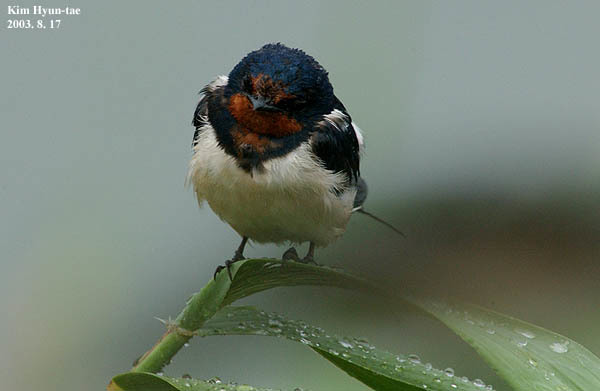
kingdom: Animalia
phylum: Chordata
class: Aves
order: Passeriformes
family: Hirundinidae
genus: Hirundo
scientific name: Hirundo rustica
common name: Barn swallow
